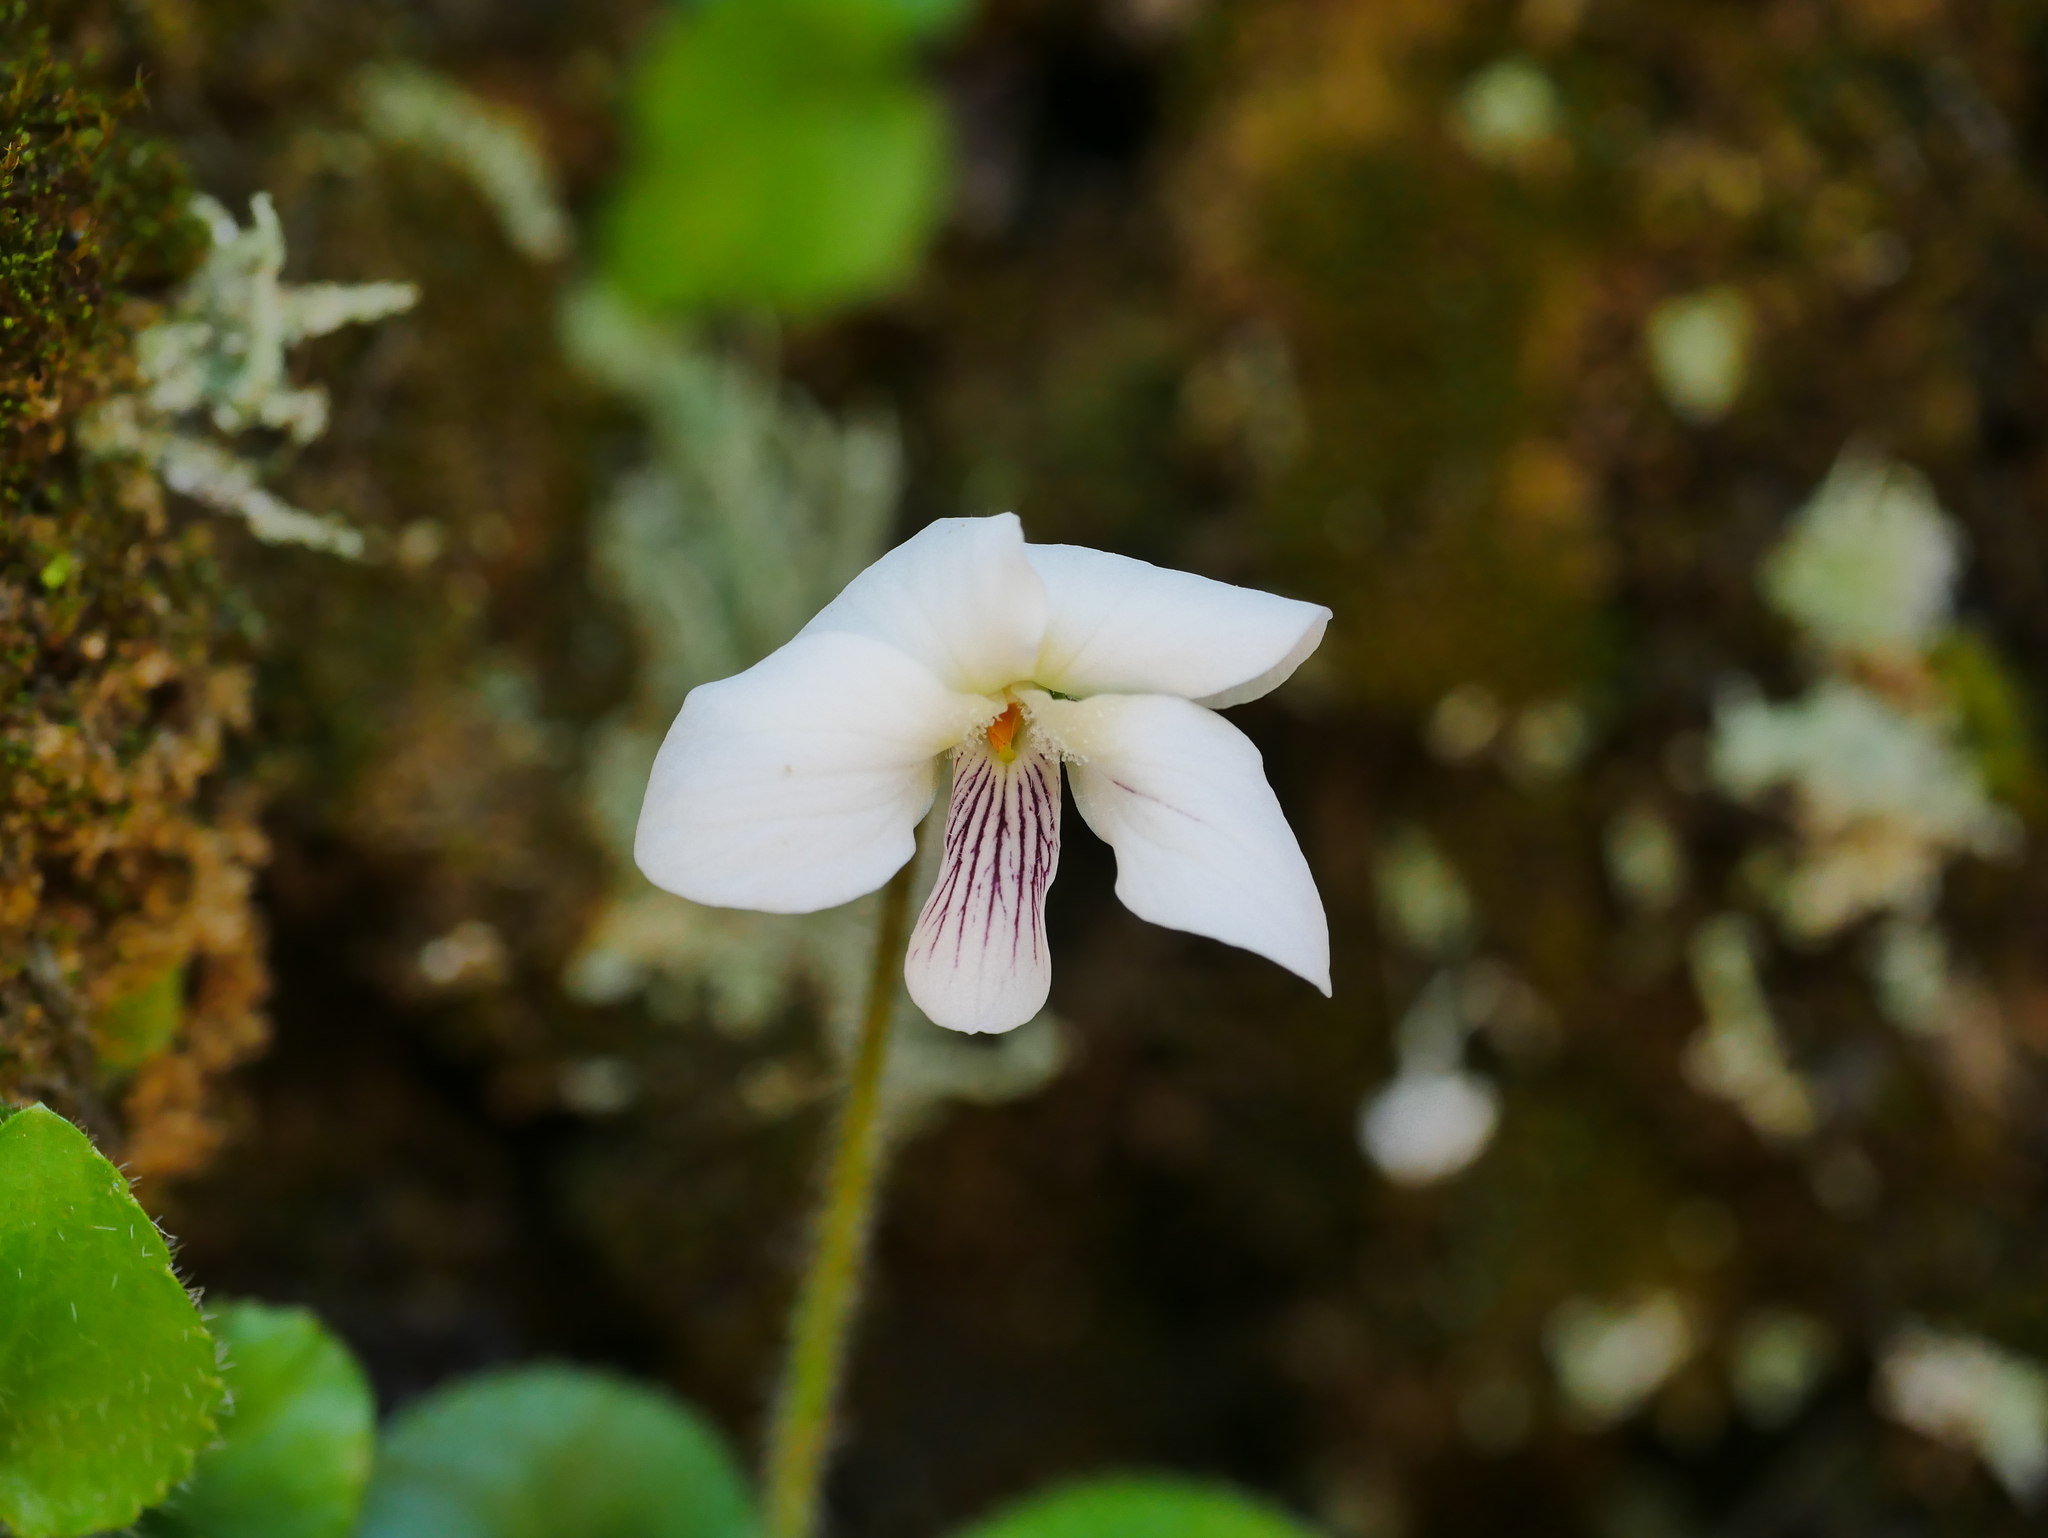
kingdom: Plantae
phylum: Tracheophyta
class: Magnoliopsida
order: Malpighiales
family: Violaceae
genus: Viola
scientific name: Viola adenothrix
